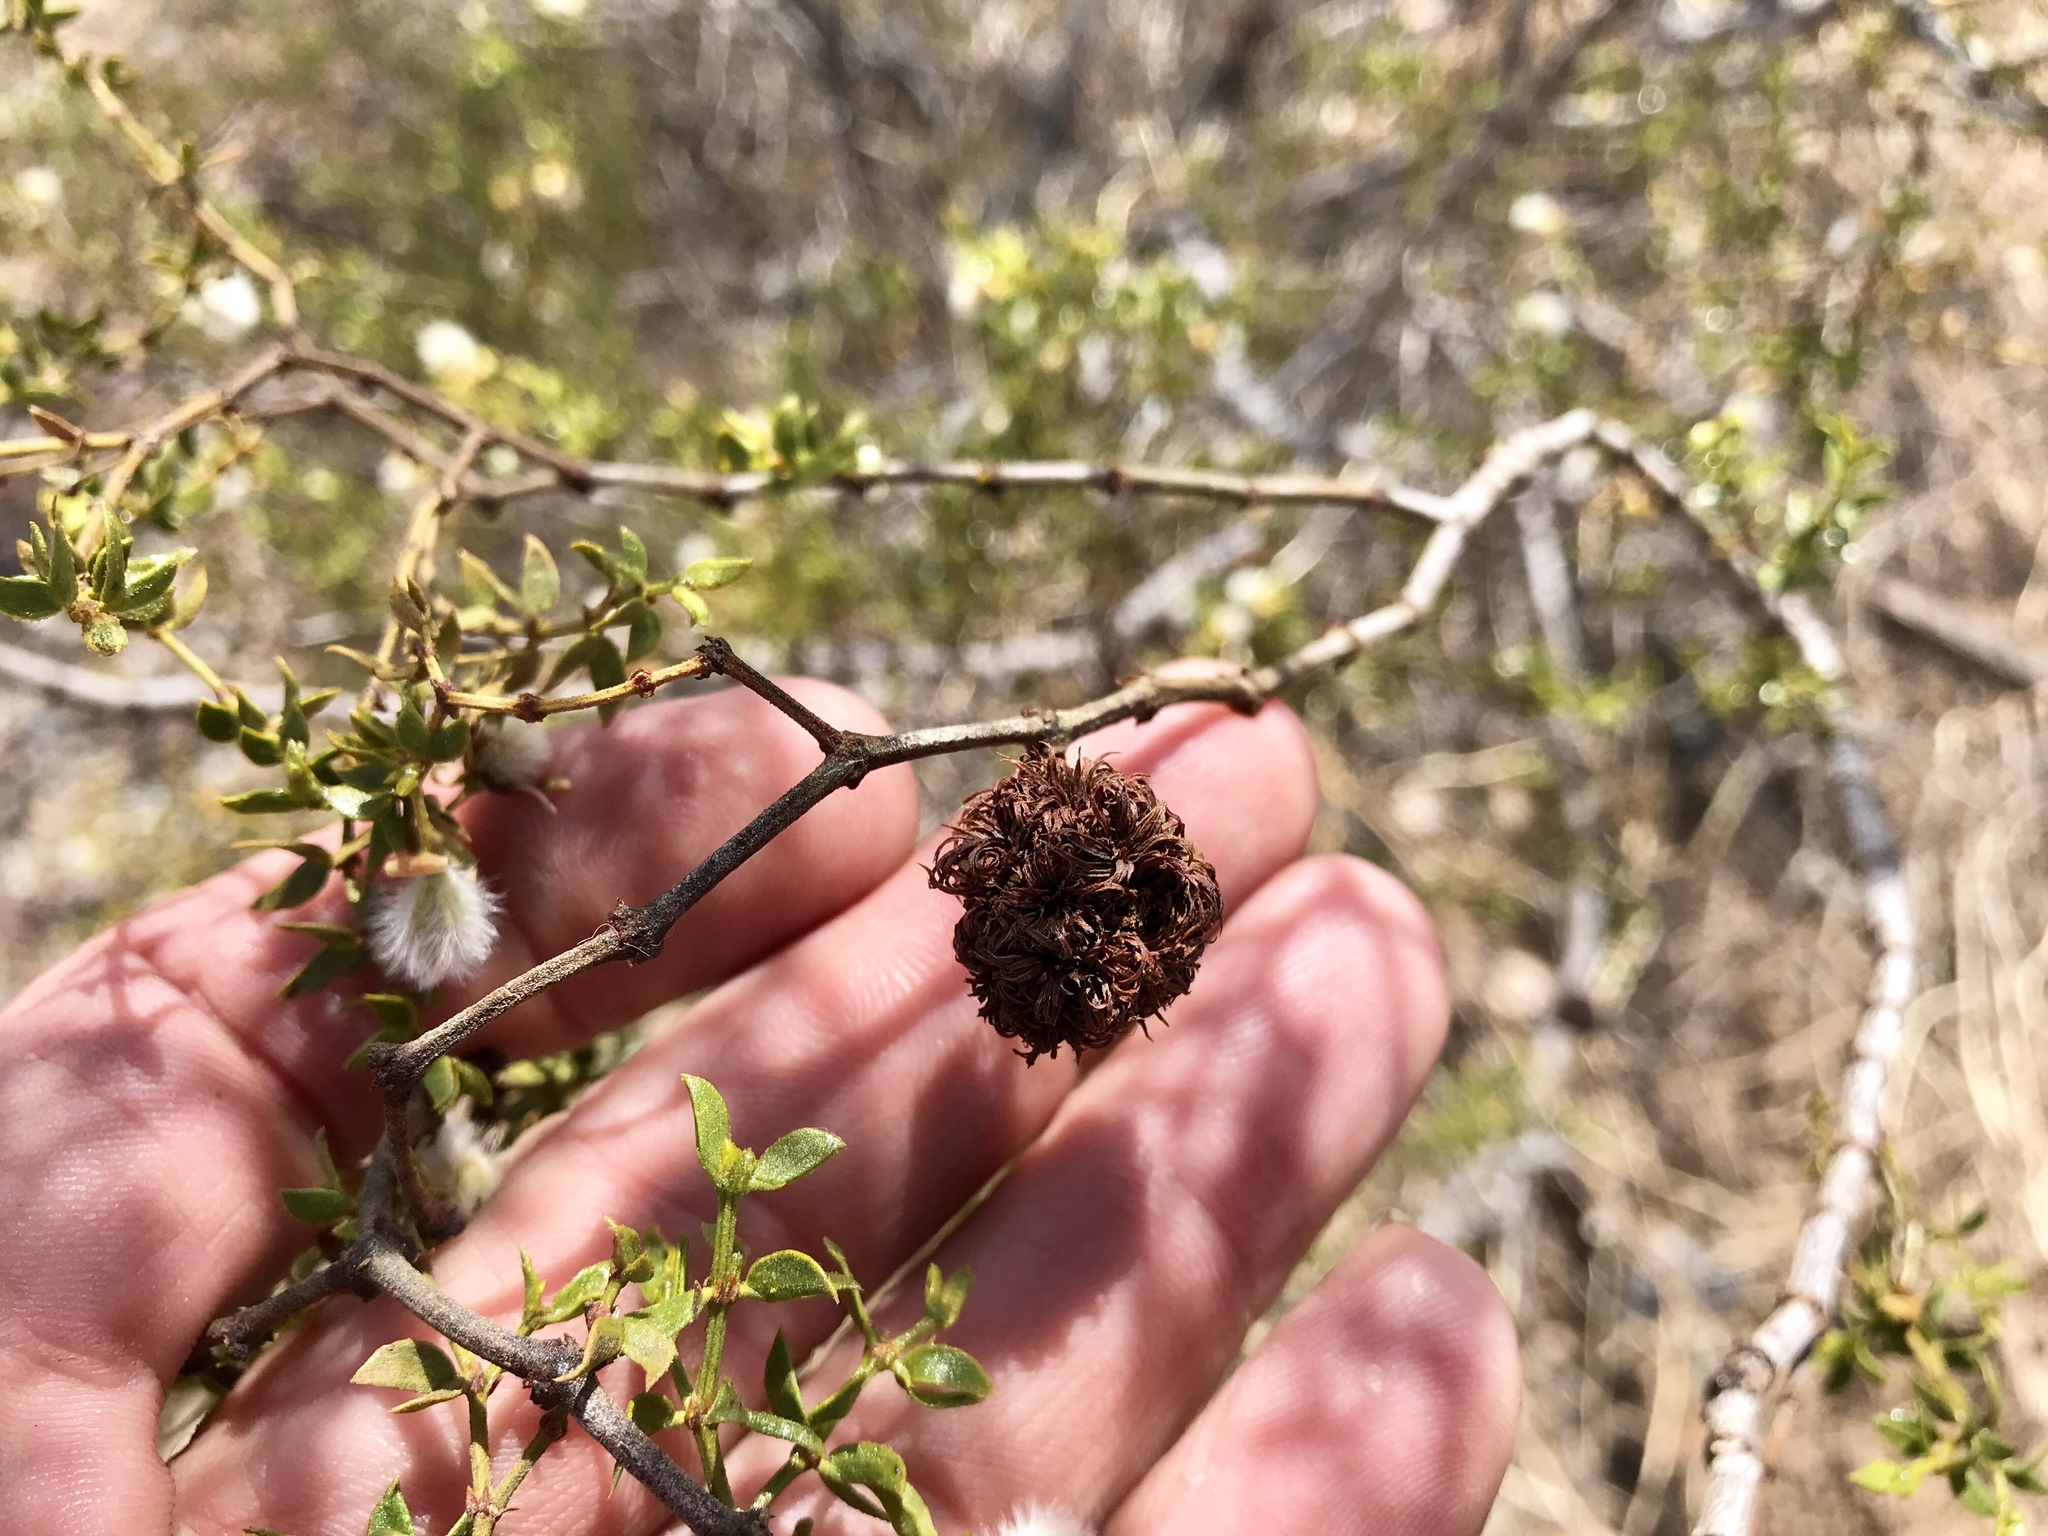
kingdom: Animalia
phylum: Arthropoda
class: Insecta
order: Diptera
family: Cecidomyiidae
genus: Asphondylia
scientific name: Asphondylia auripila
